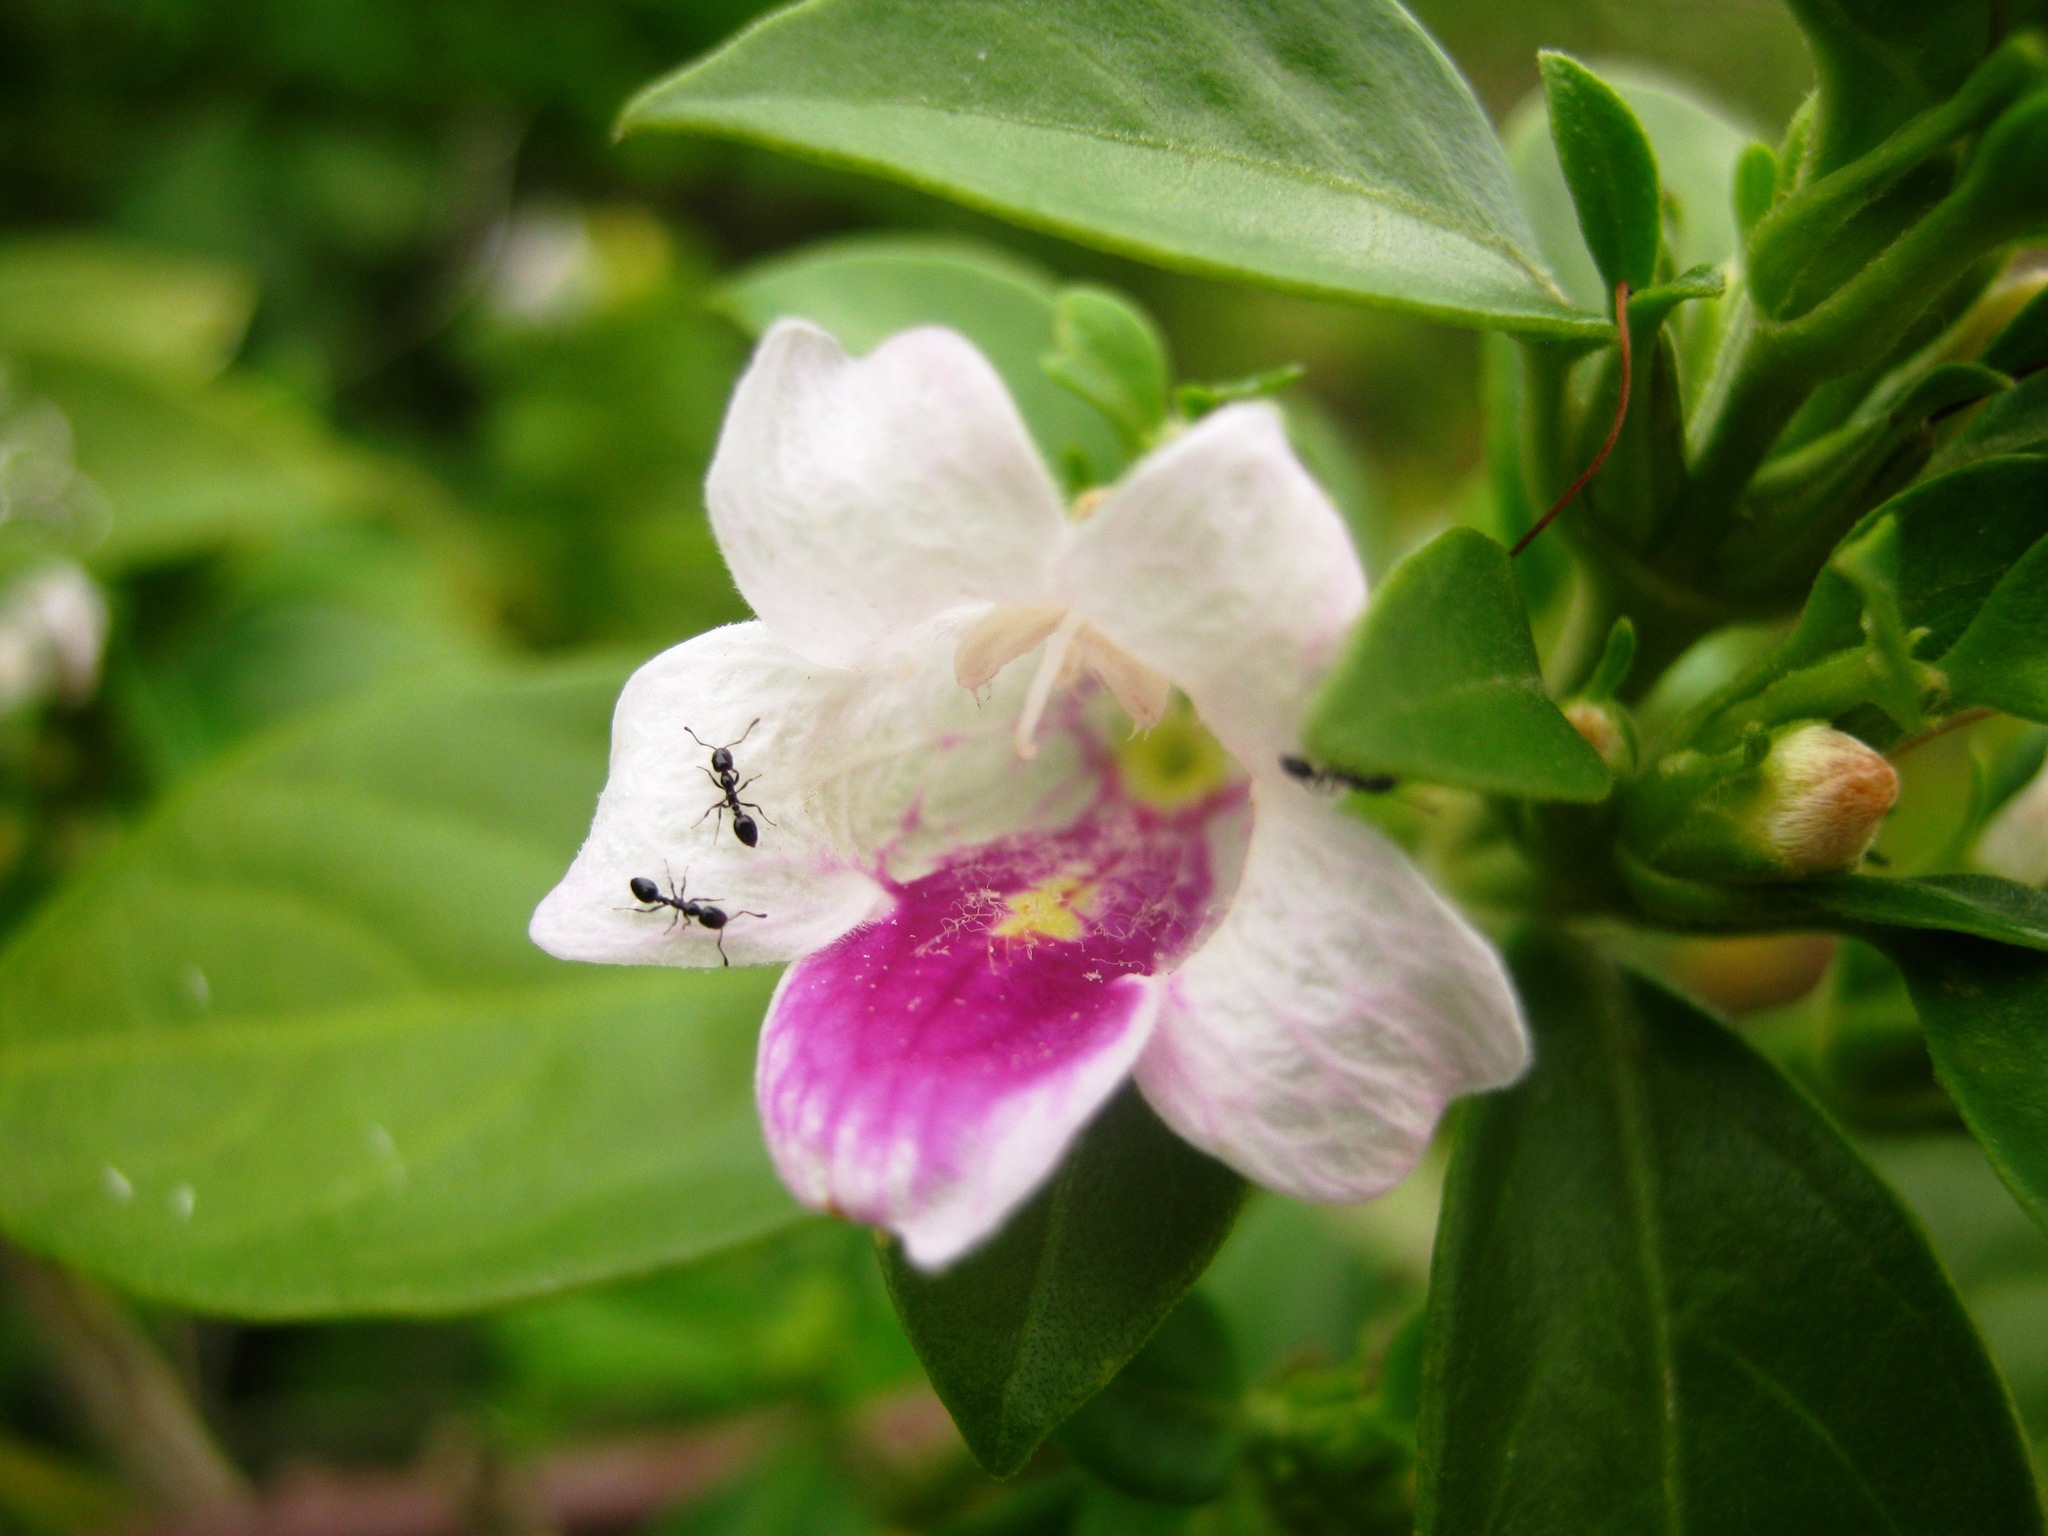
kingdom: Plantae
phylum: Tracheophyta
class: Magnoliopsida
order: Lamiales
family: Acanthaceae
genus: Bravaisia
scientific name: Bravaisia berlandieriana
